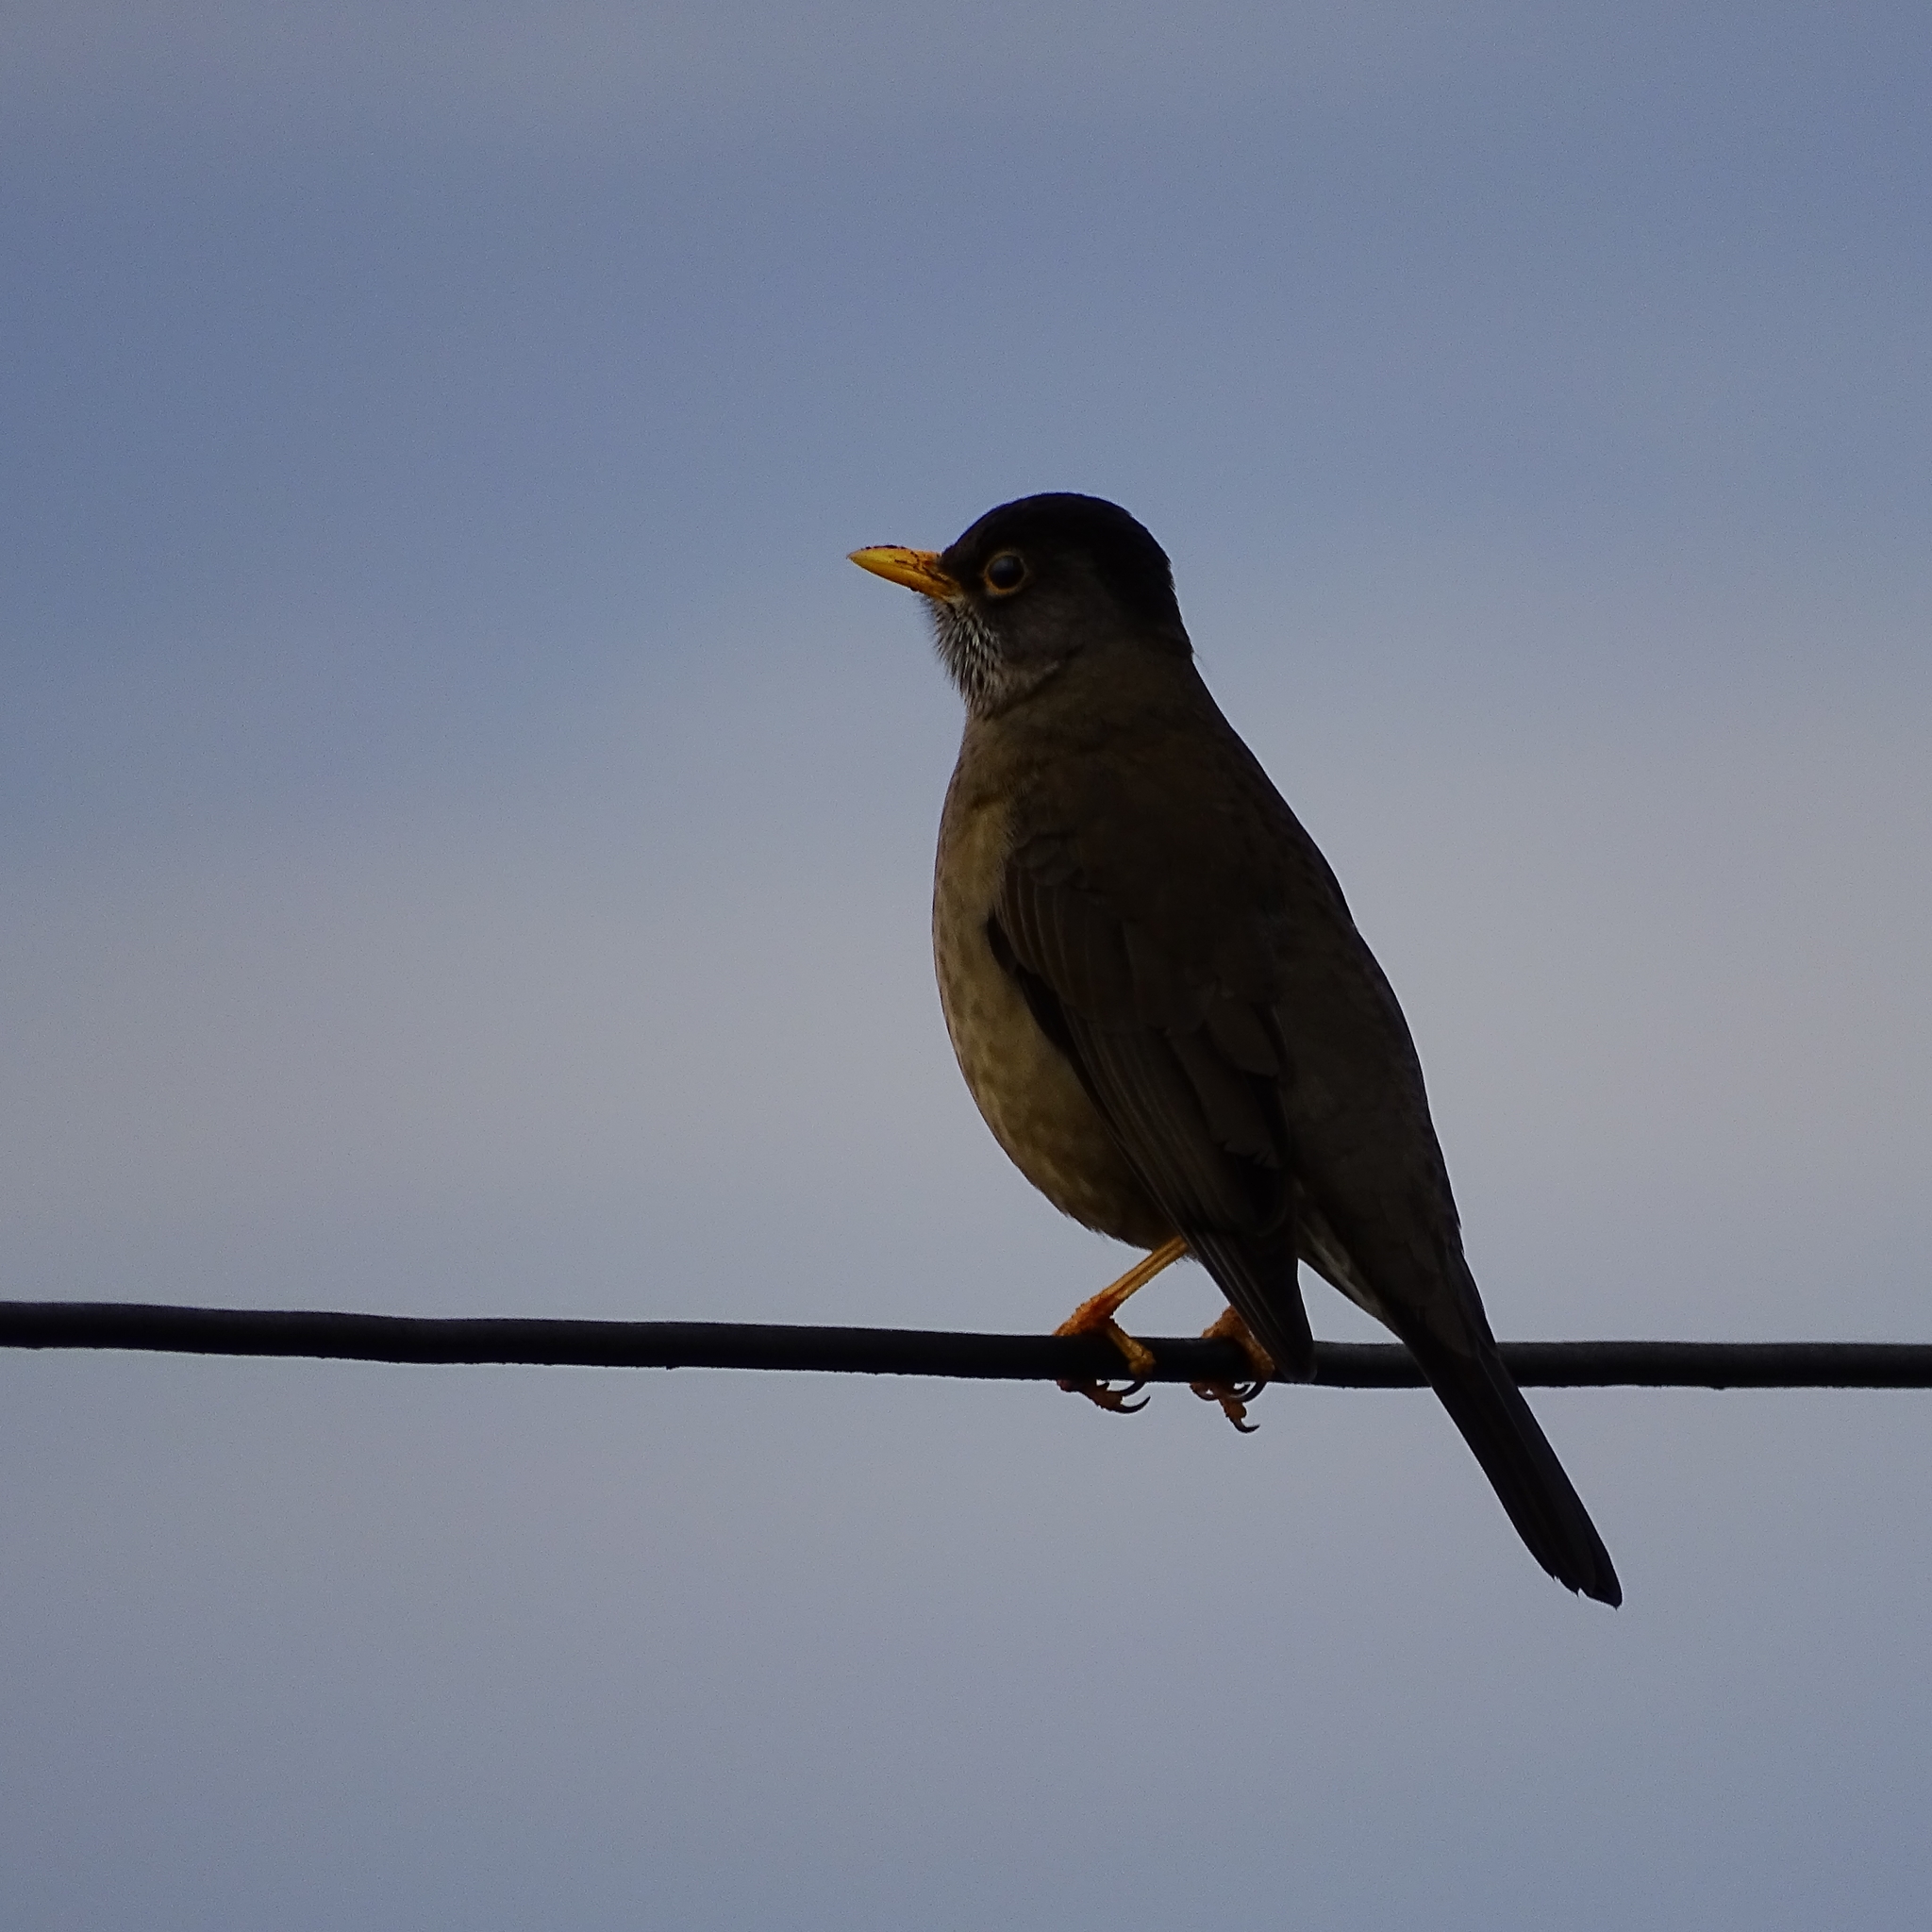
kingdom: Animalia
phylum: Chordata
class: Aves
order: Passeriformes
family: Turdidae
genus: Turdus
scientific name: Turdus falcklandii
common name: Austral thrush
